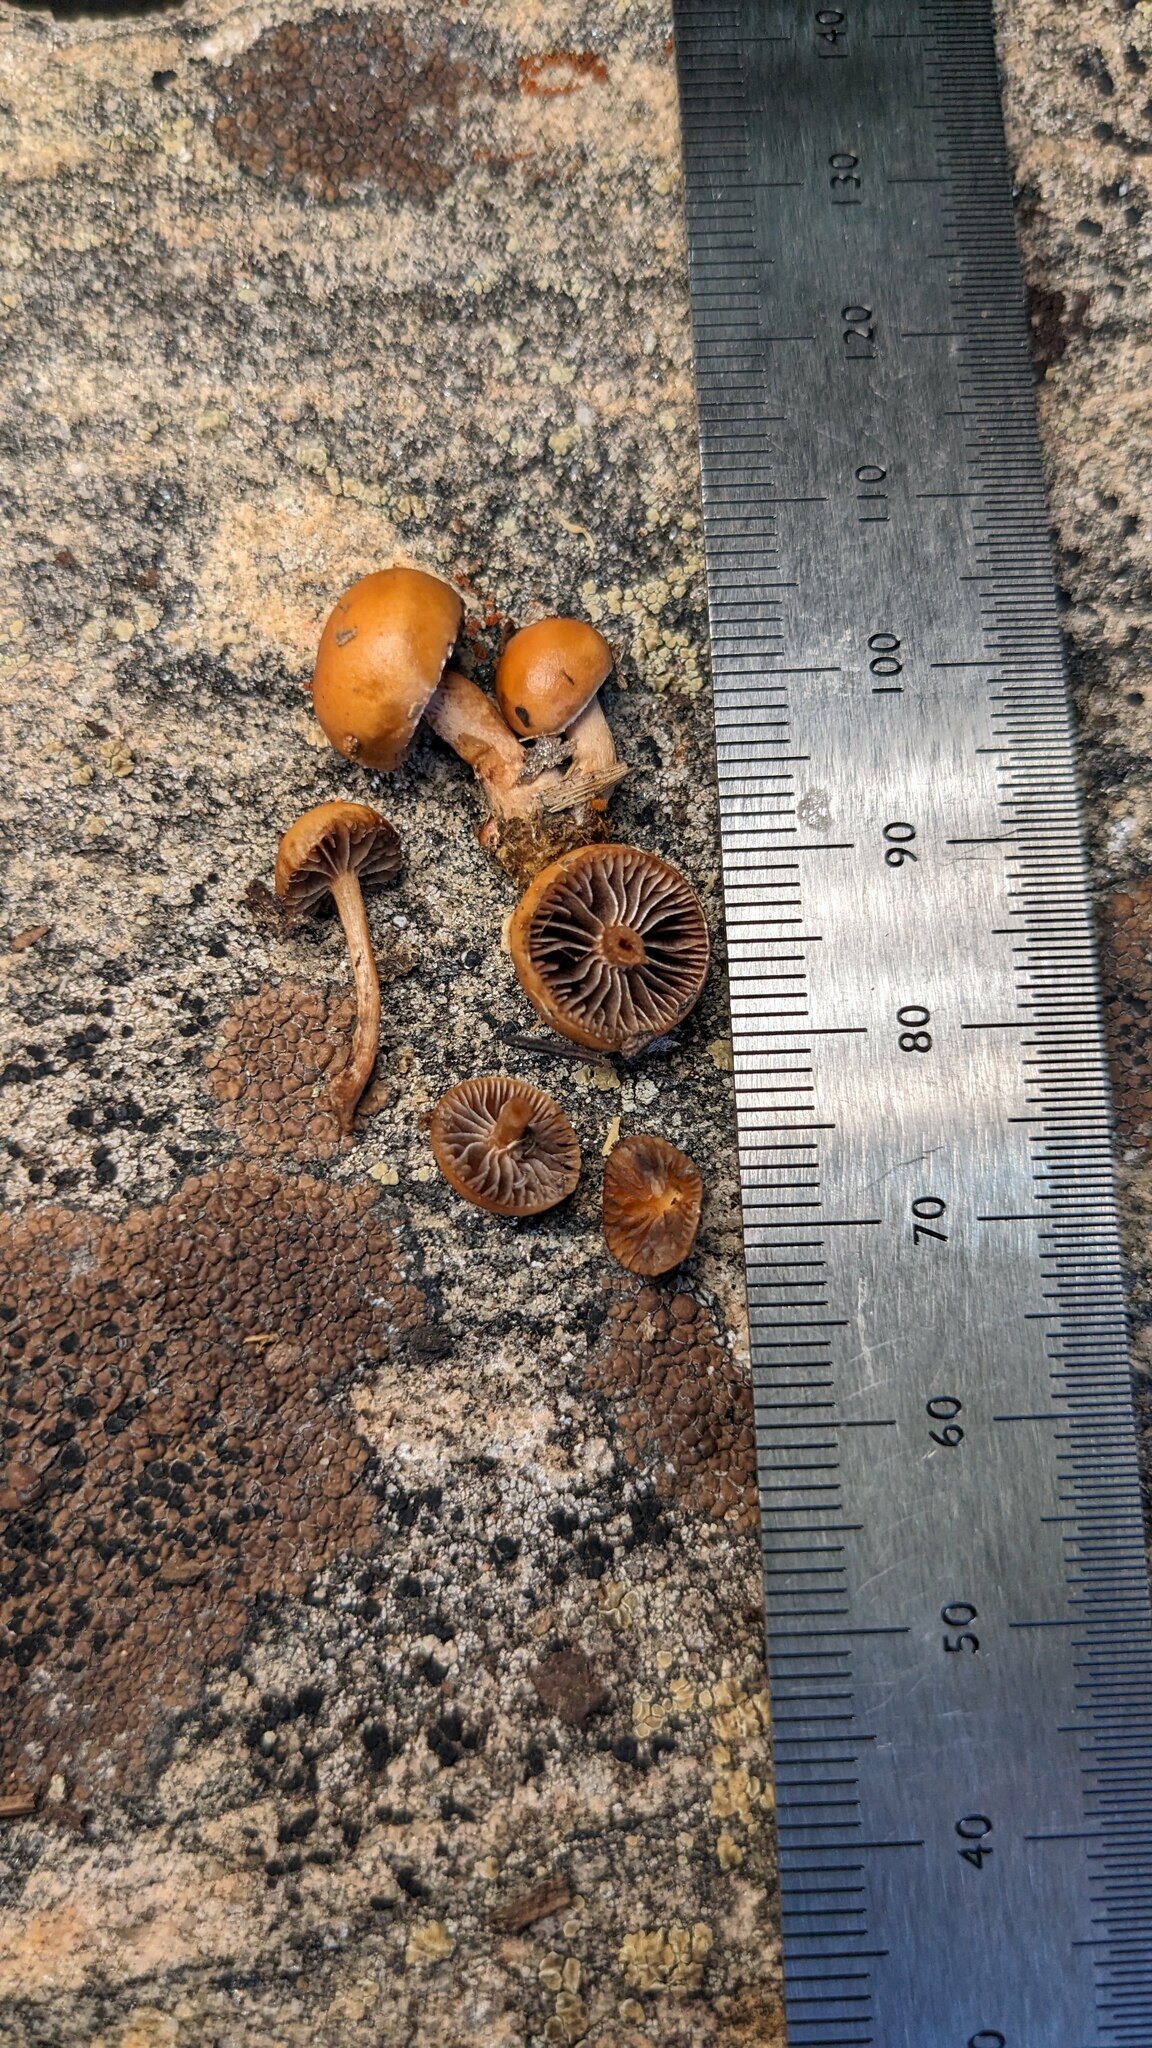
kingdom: Fungi
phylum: Basidiomycota
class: Agaricomycetes
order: Agaricales
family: Strophariaceae
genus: Deconica
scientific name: Deconica coprophila
